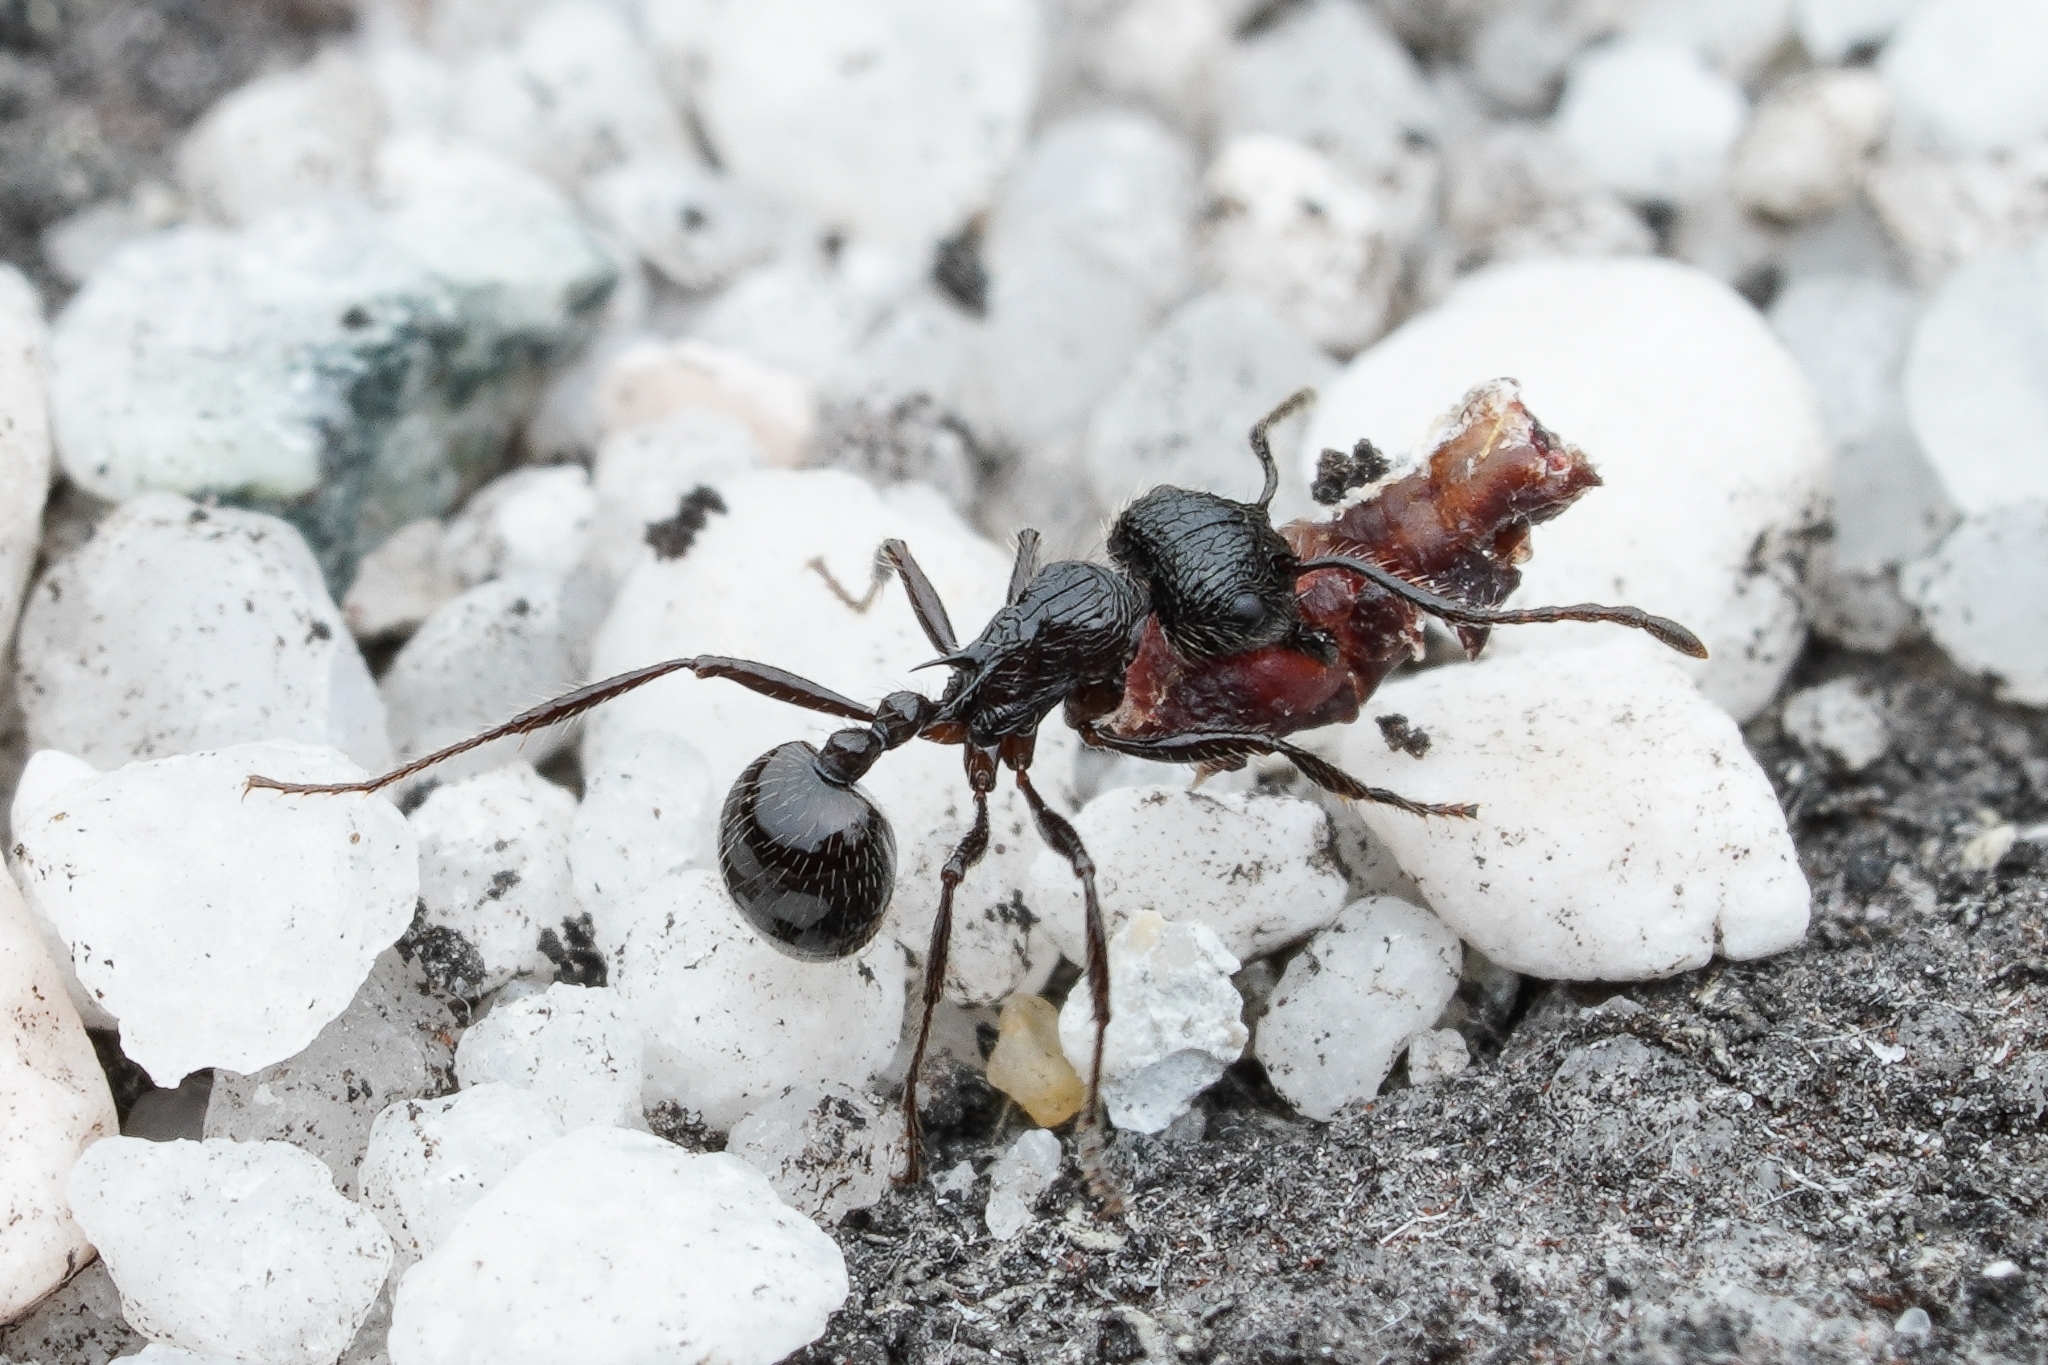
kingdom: Animalia
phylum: Arthropoda
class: Insecta
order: Hymenoptera
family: Formicidae
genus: Myrmicaria
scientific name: Myrmicaria nigra
